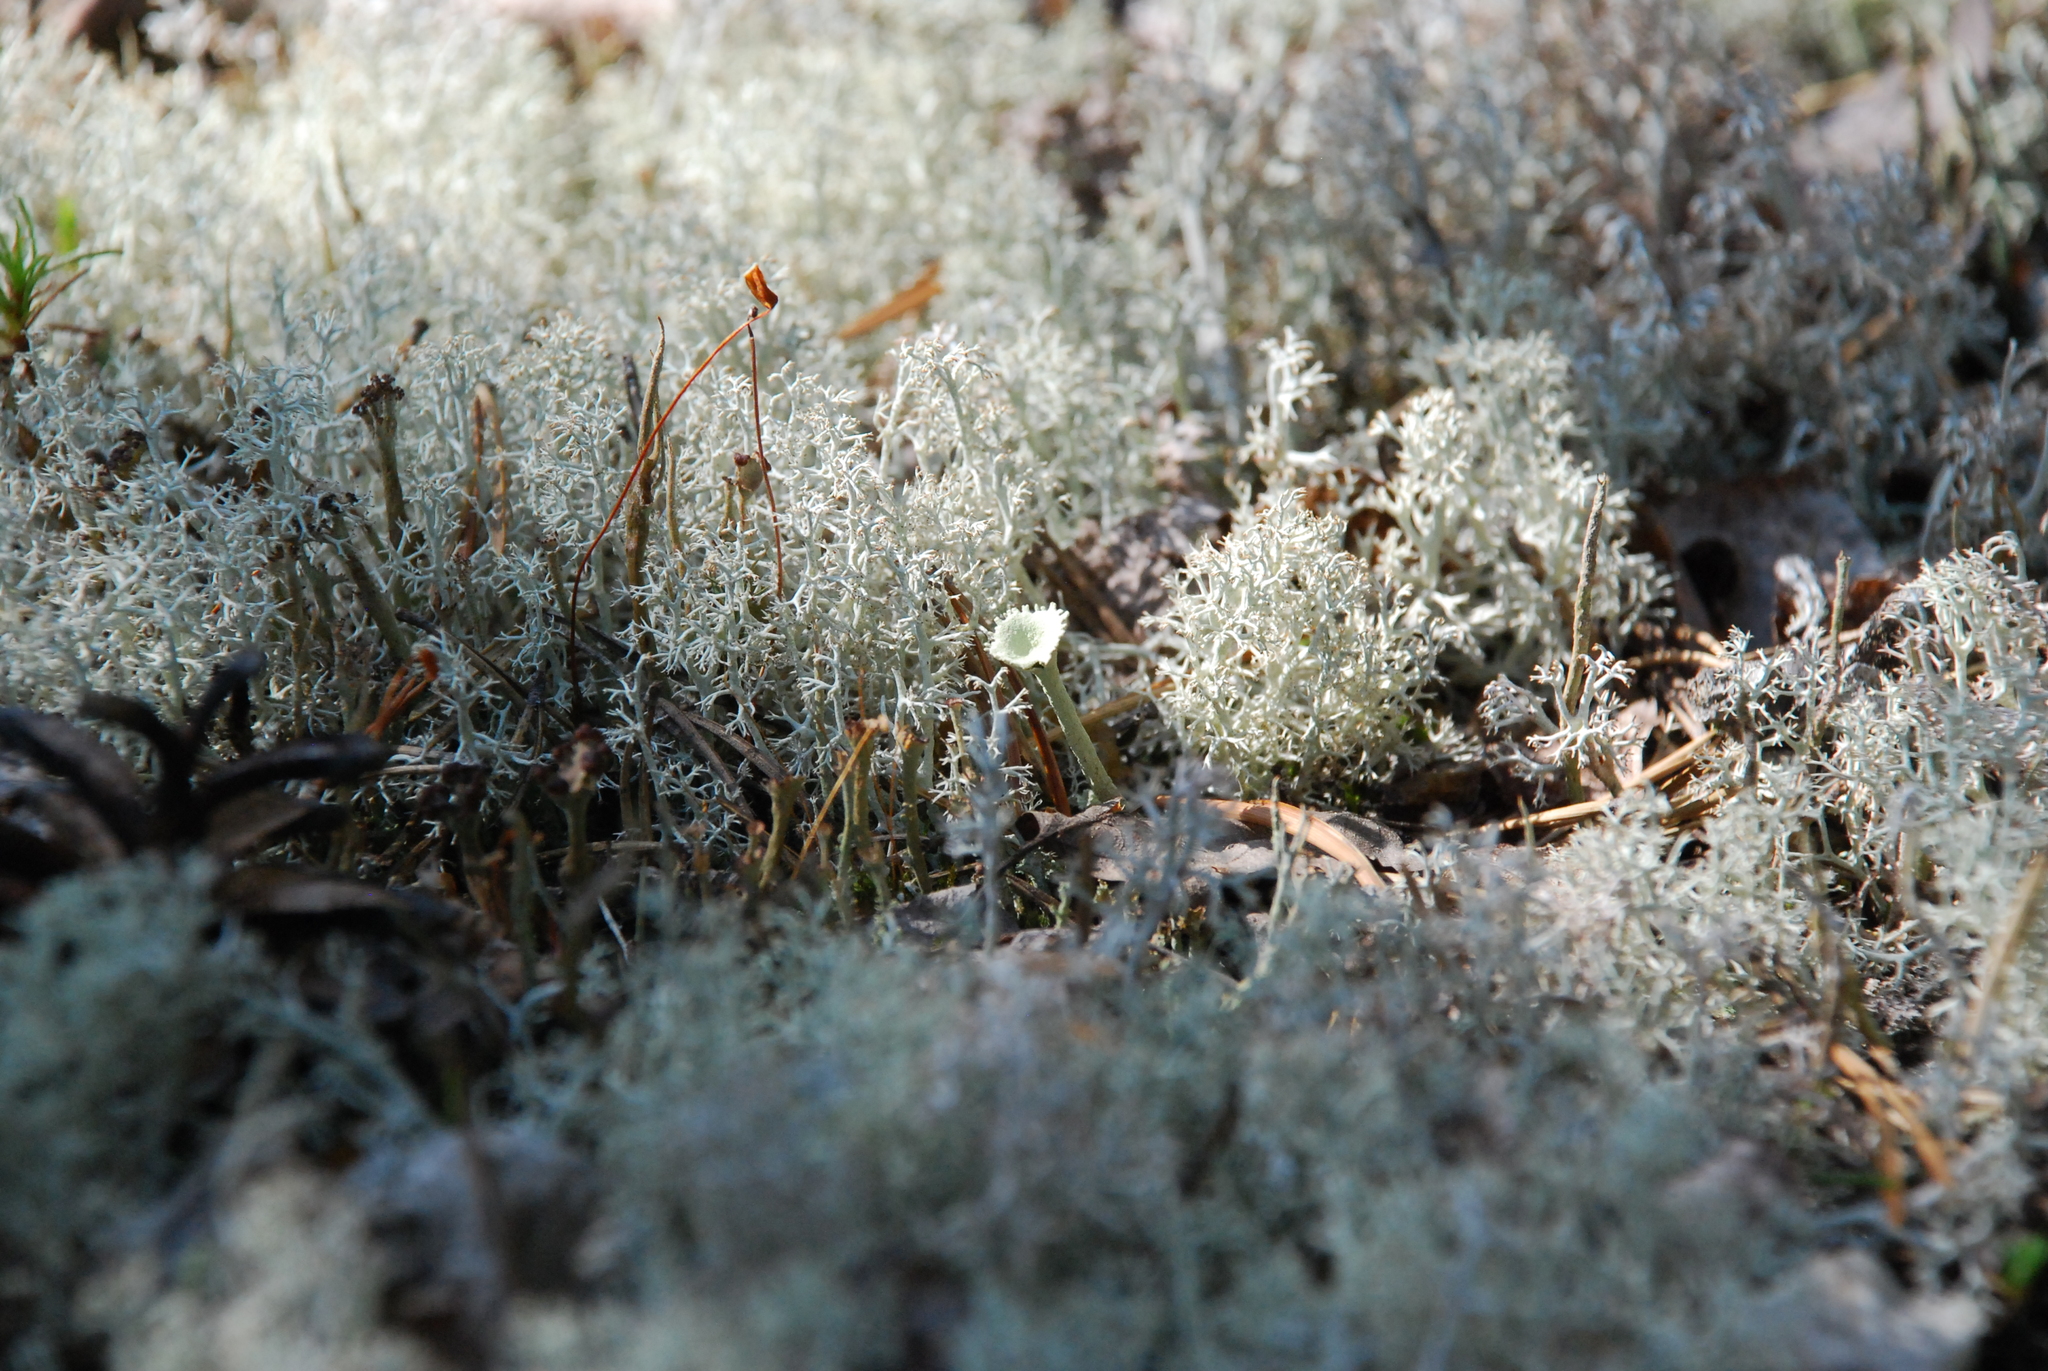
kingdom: Fungi
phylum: Ascomycota
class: Lecanoromycetes
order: Lecanorales
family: Cladoniaceae
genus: Cladonia
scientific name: Cladonia rangiferina
